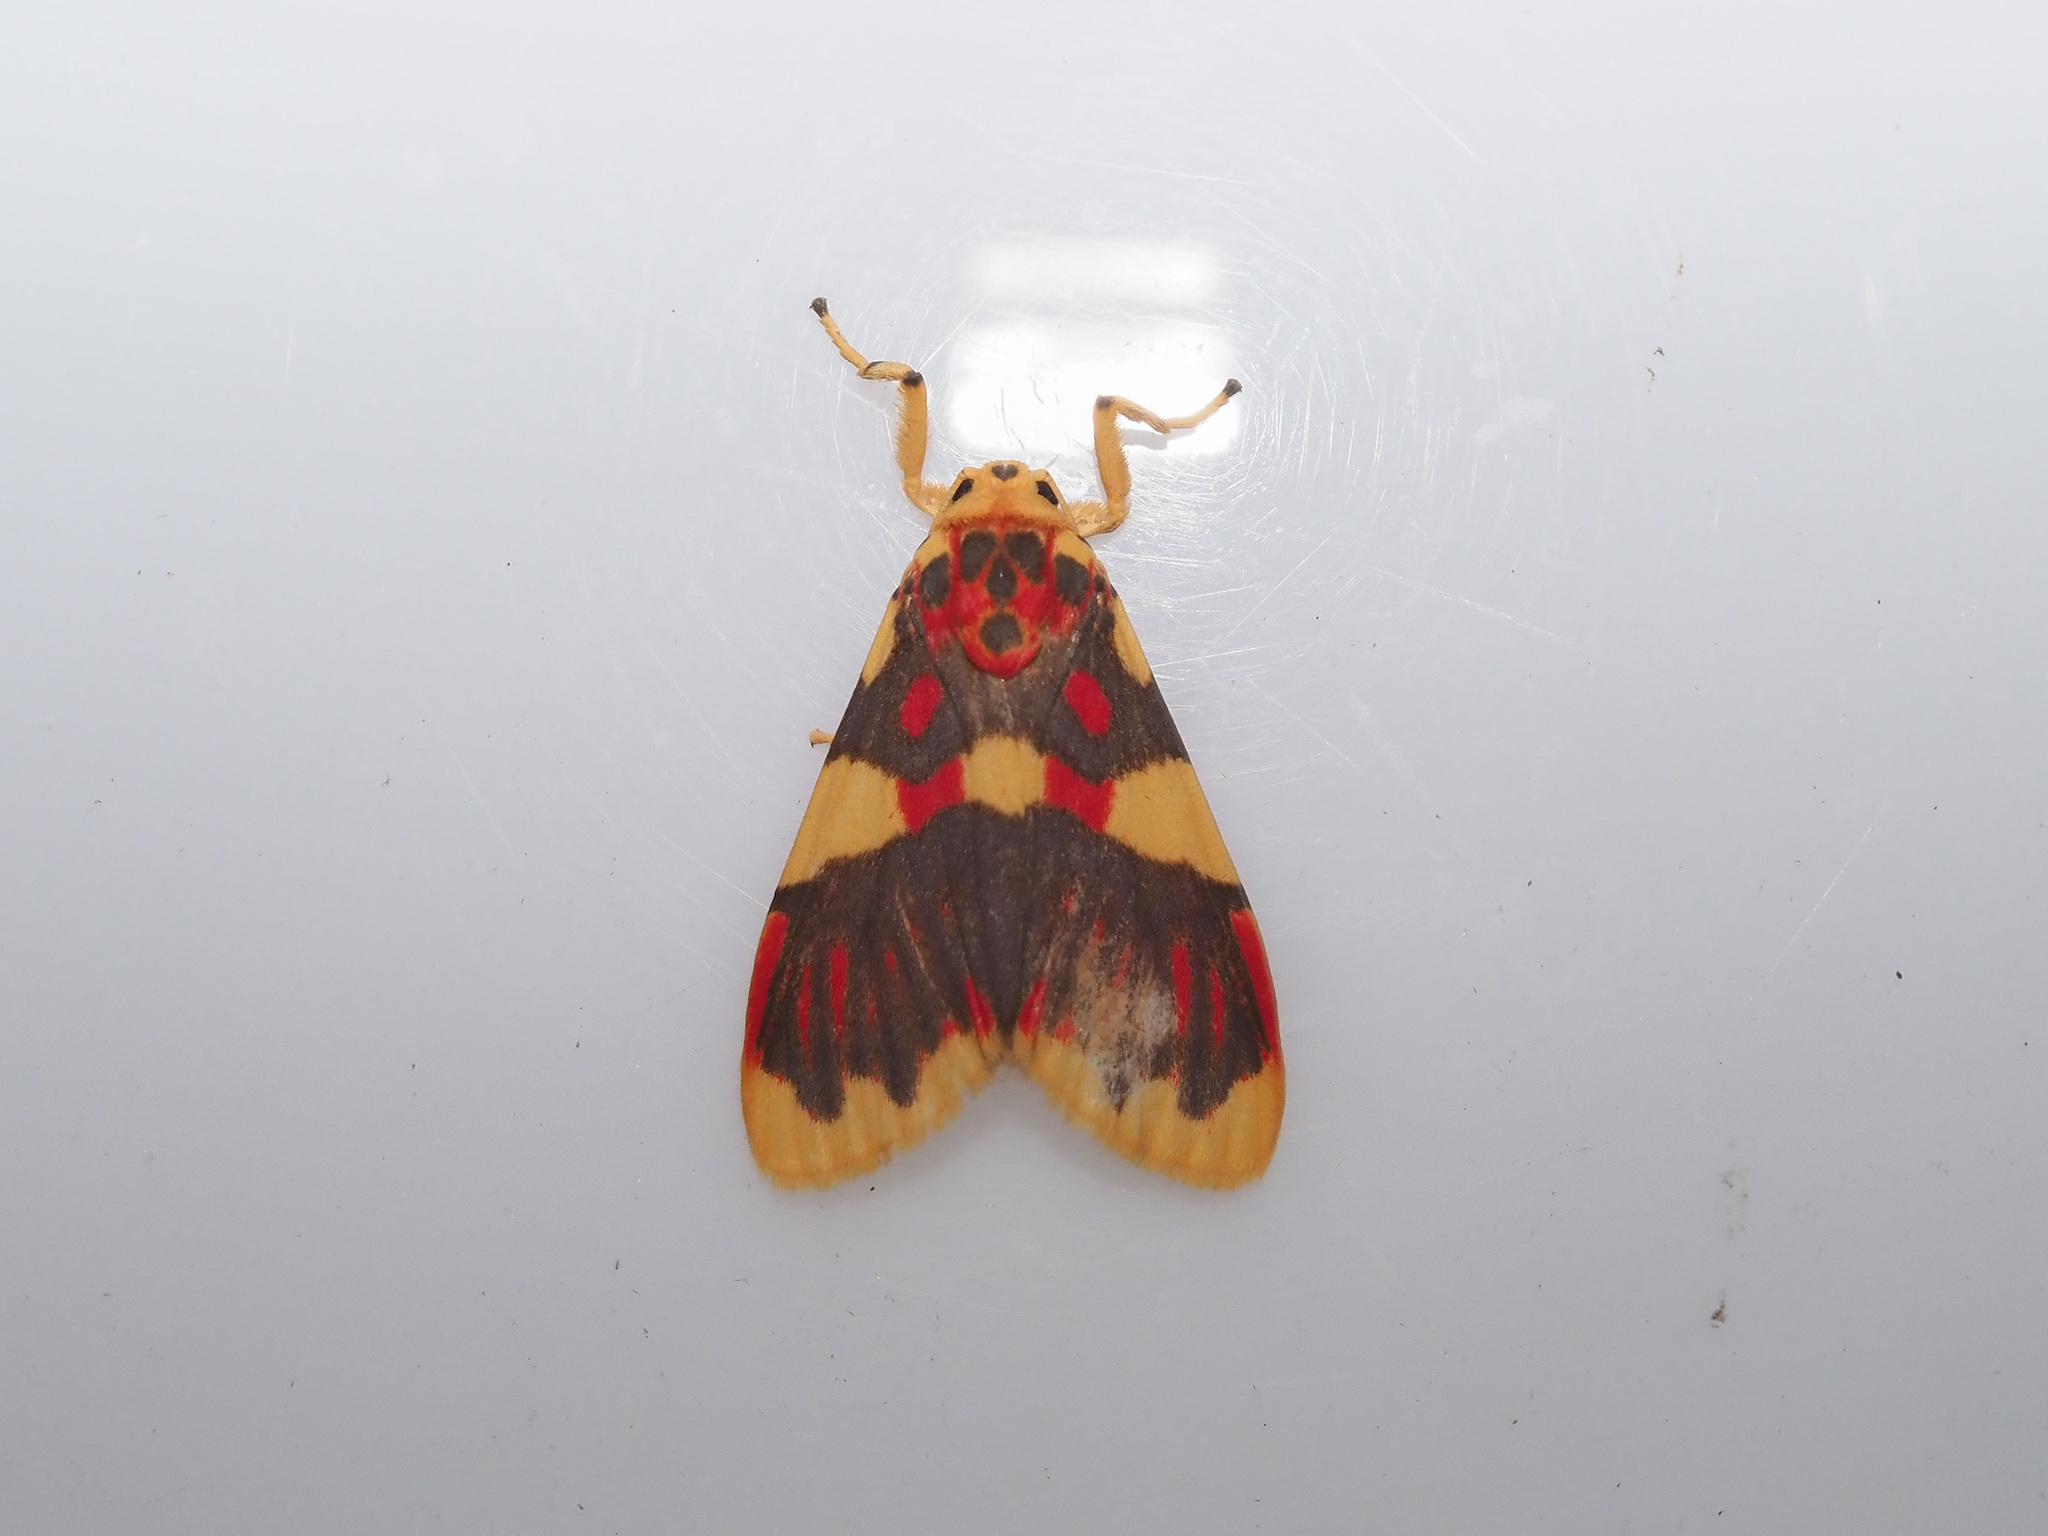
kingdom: Animalia
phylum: Arthropoda
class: Insecta
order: Lepidoptera
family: Erebidae
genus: Barsine
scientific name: Barsine rubricostata
